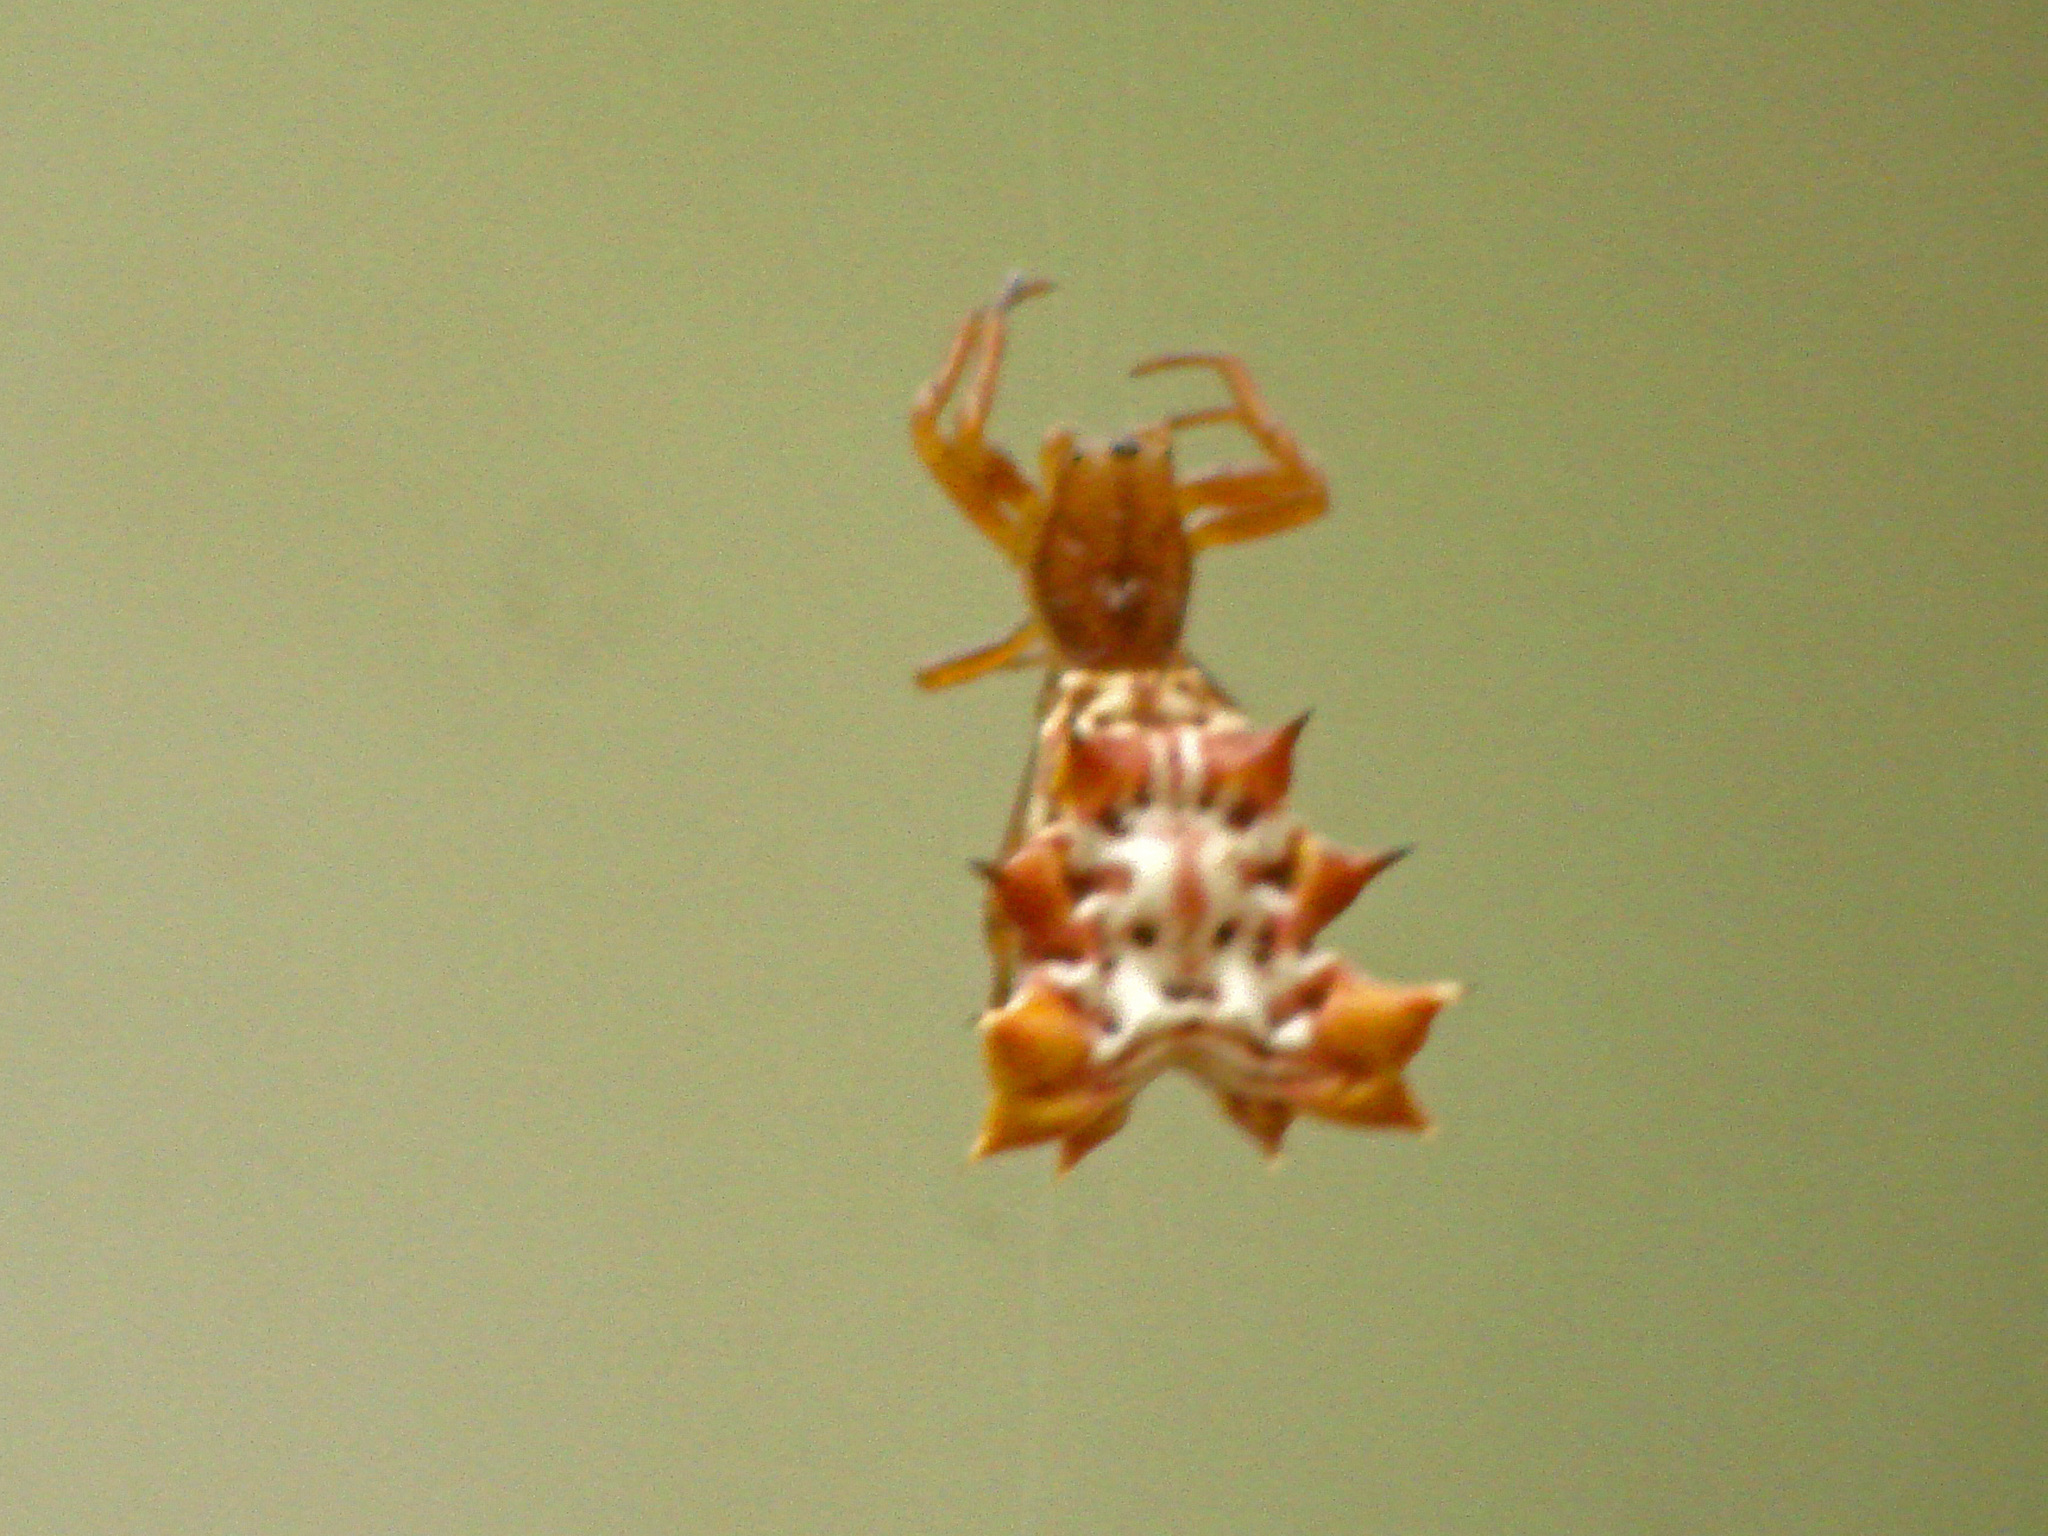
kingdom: Animalia
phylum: Arthropoda
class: Arachnida
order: Araneae
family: Araneidae
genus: Micrathena
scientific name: Micrathena gracilis
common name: Orb weavers
